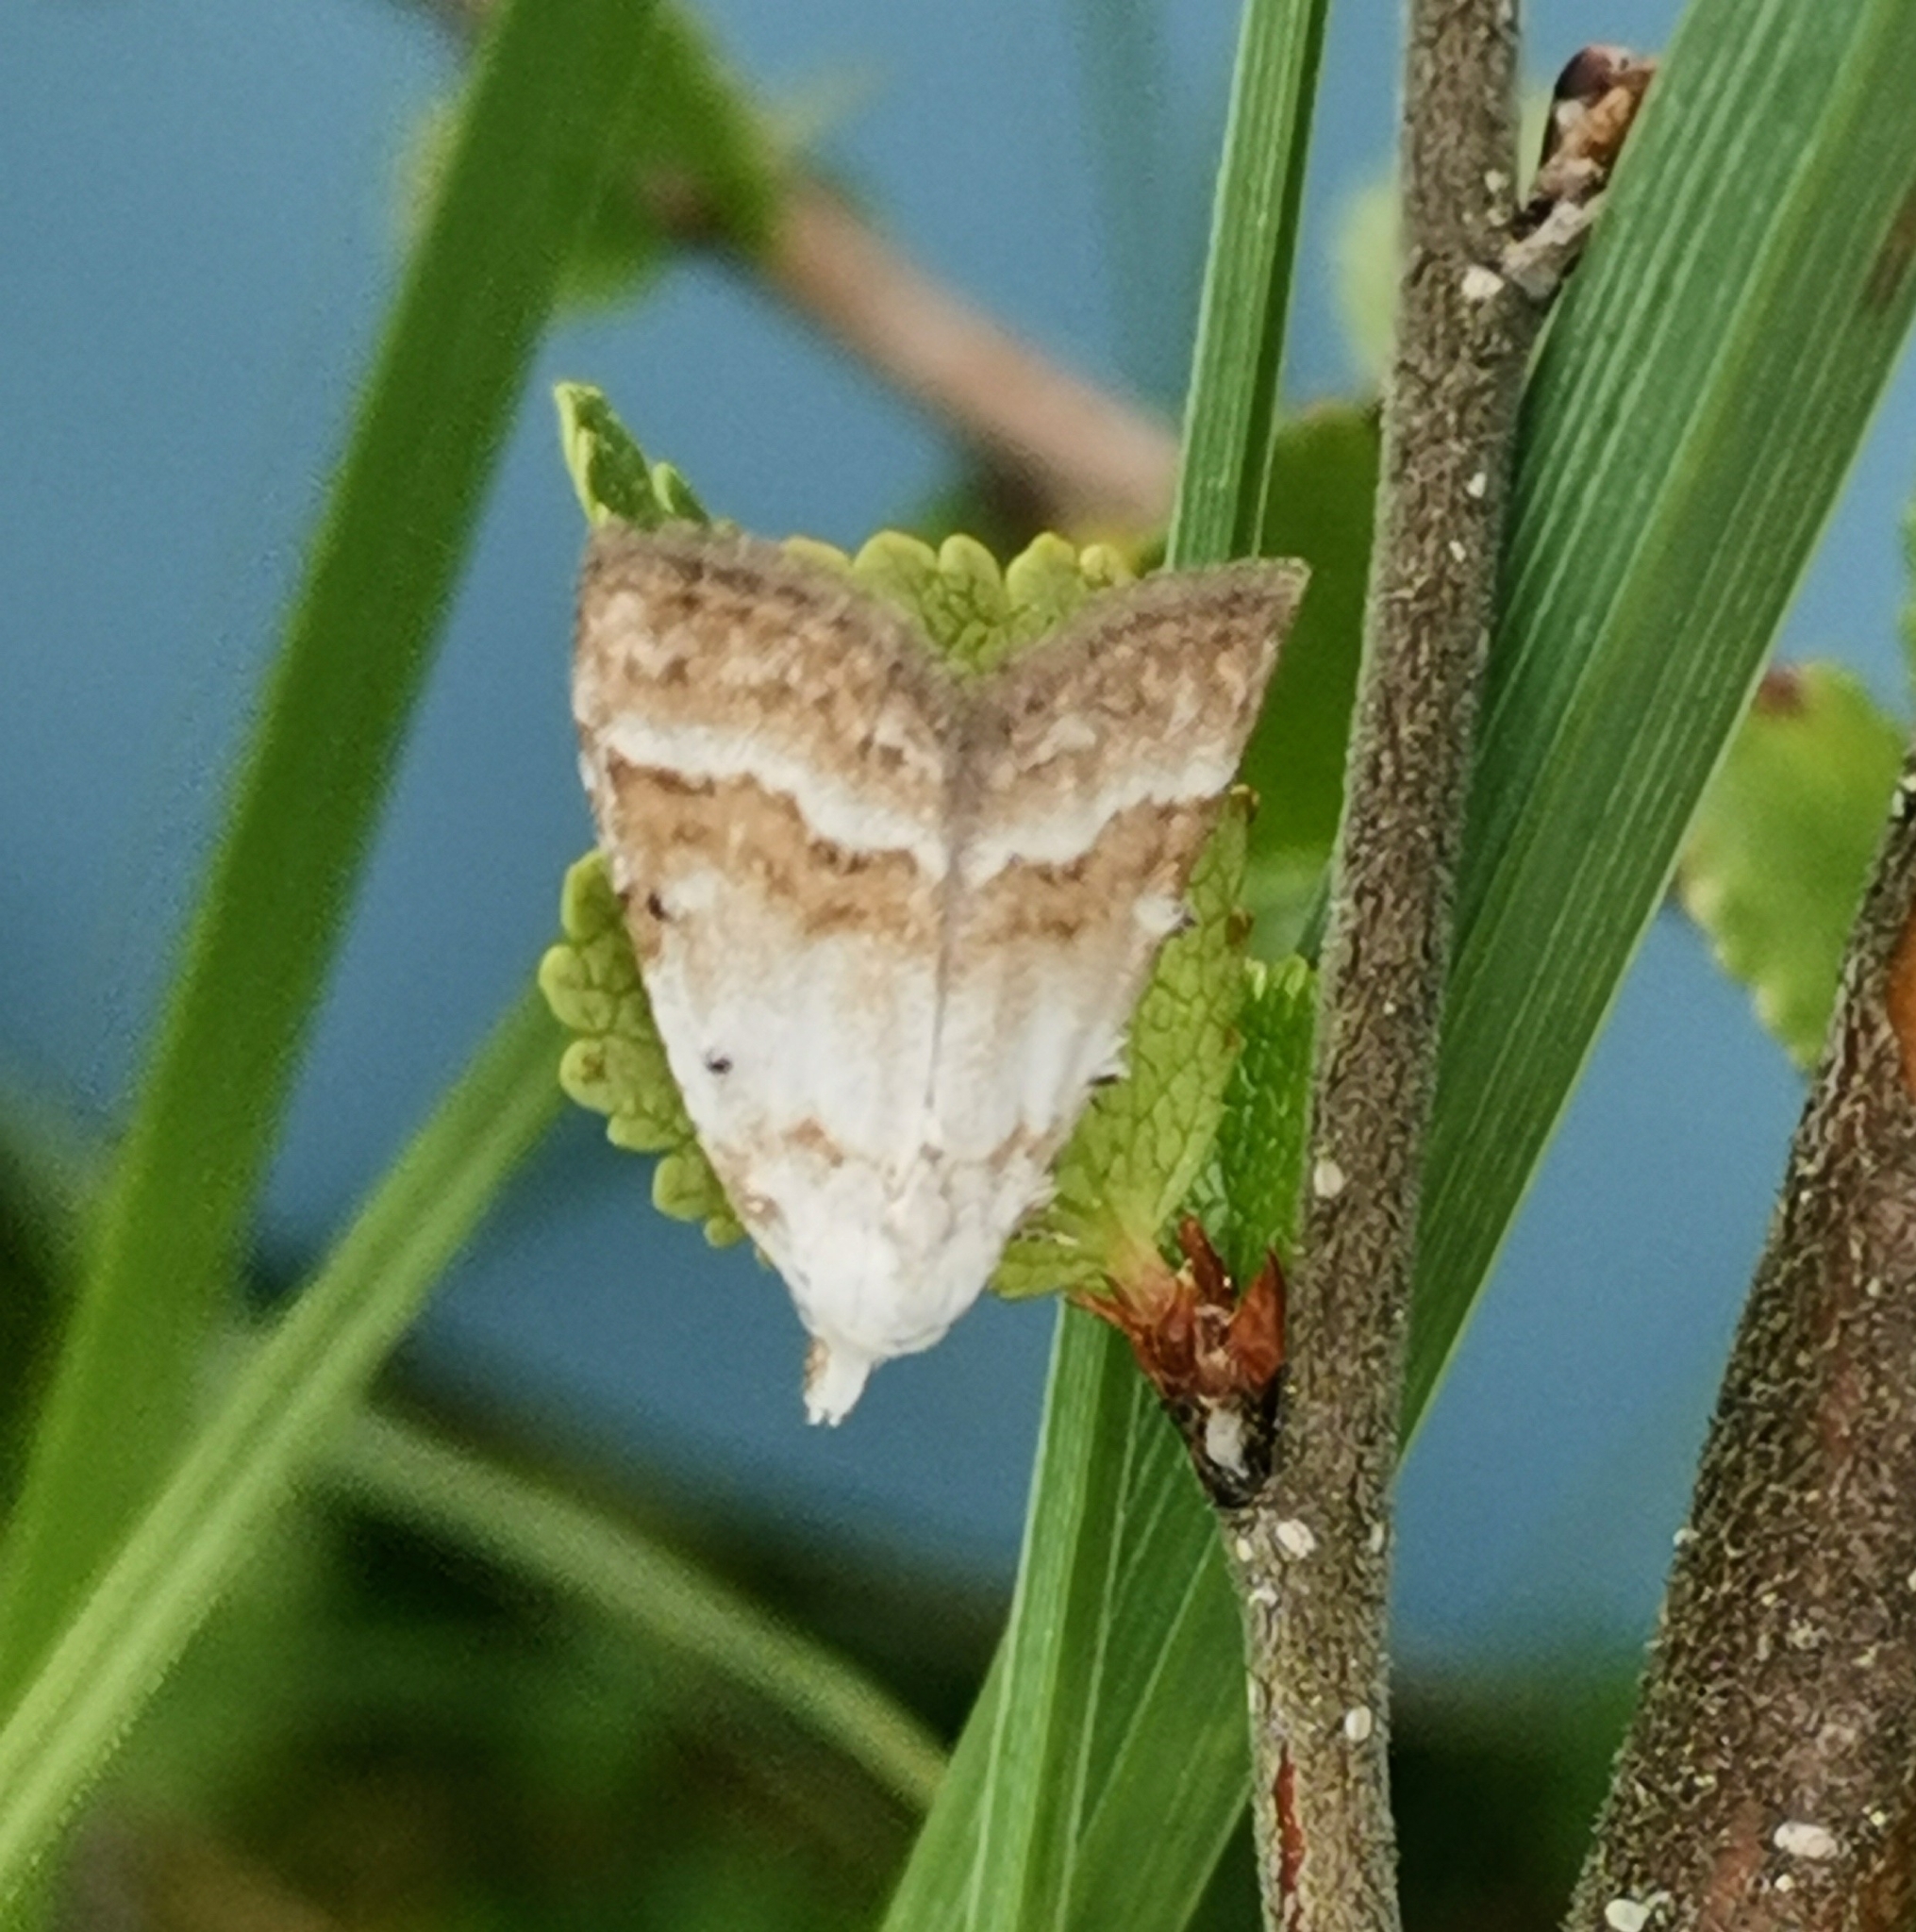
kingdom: Animalia
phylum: Arthropoda
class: Insecta
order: Lepidoptera
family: Nolidae
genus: Nola
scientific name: Nola aerugula
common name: Scarce black arches
